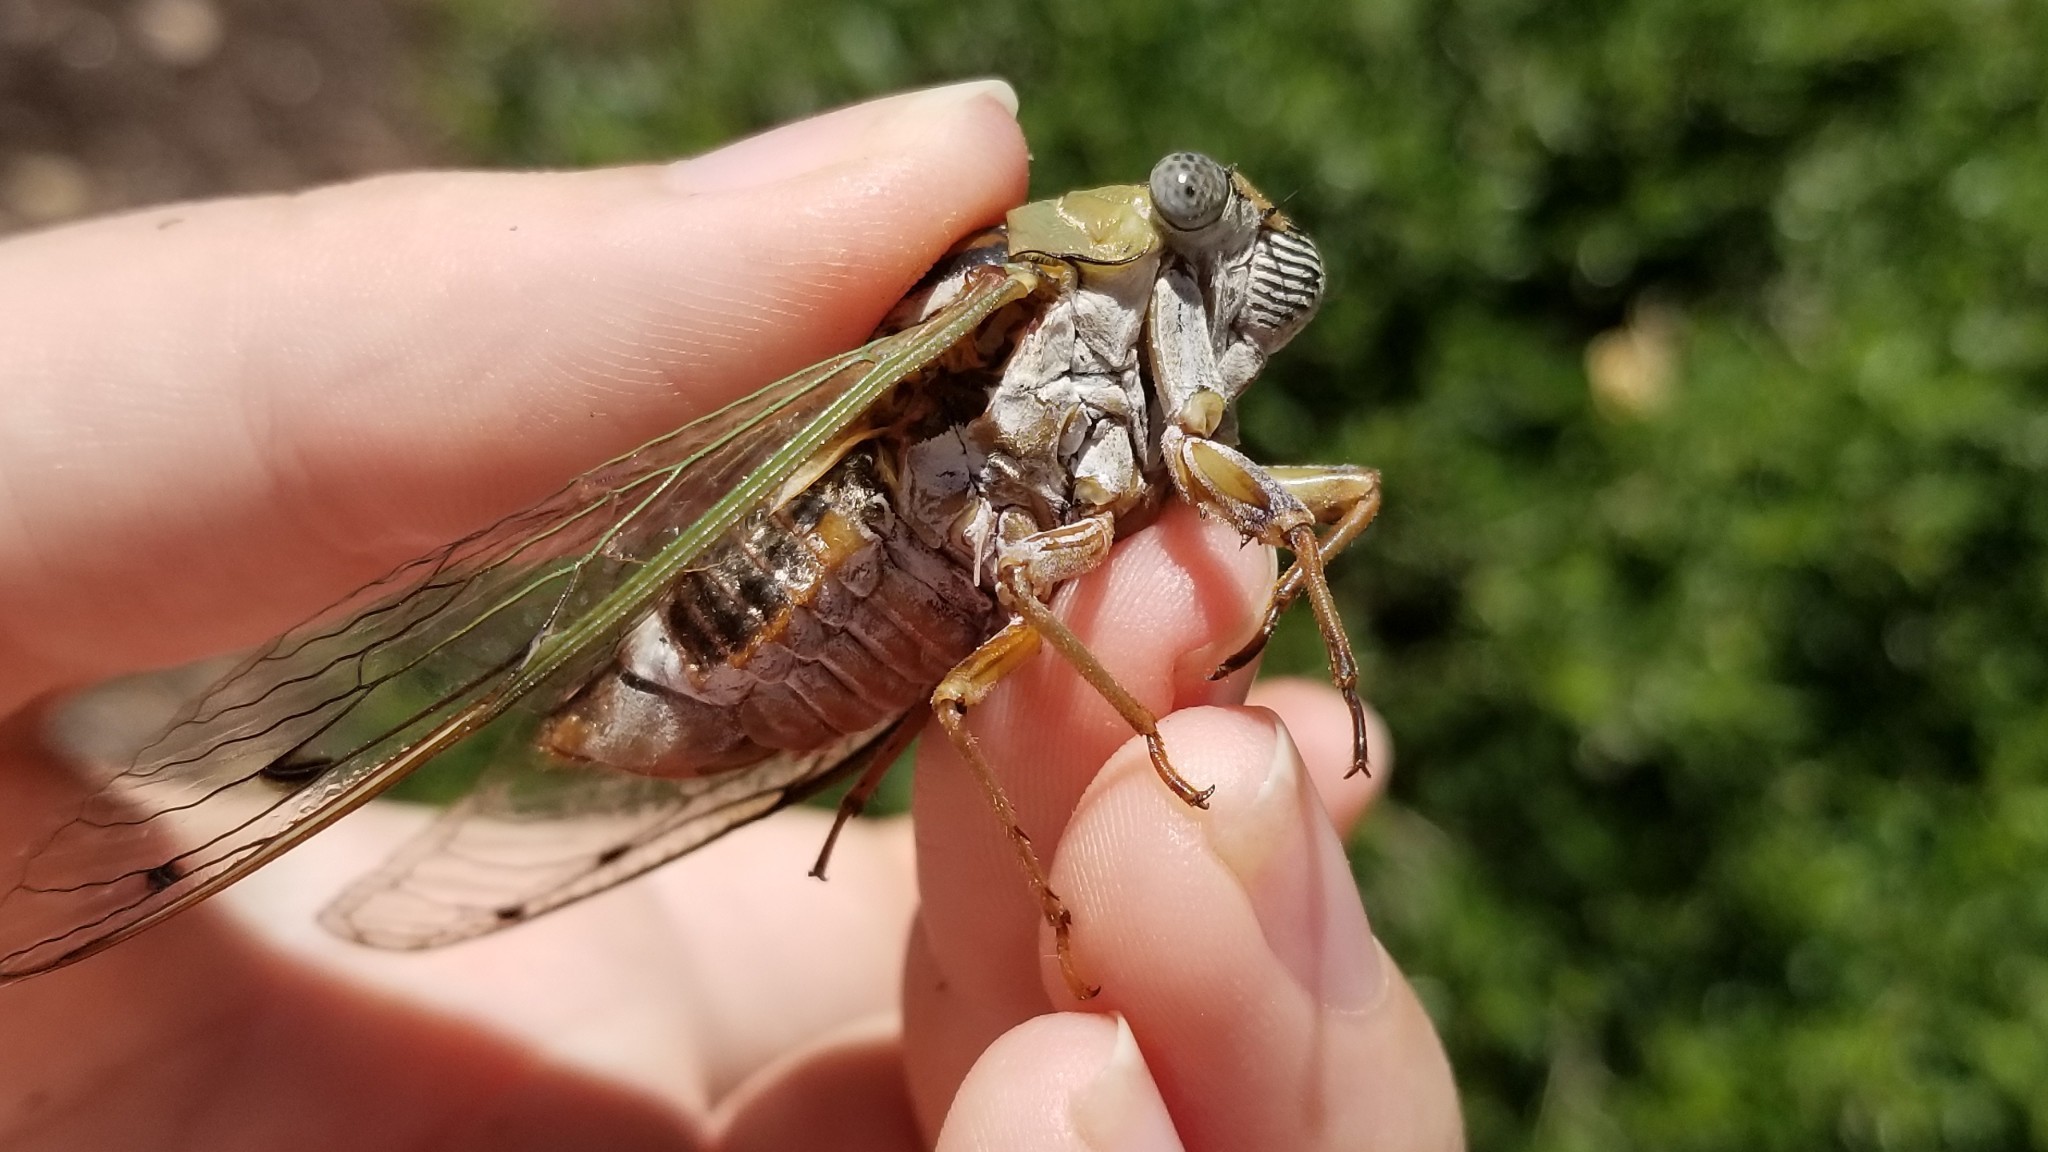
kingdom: Animalia
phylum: Arthropoda
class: Insecta
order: Hemiptera
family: Cicadidae
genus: Megatibicen
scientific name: Megatibicen resh
